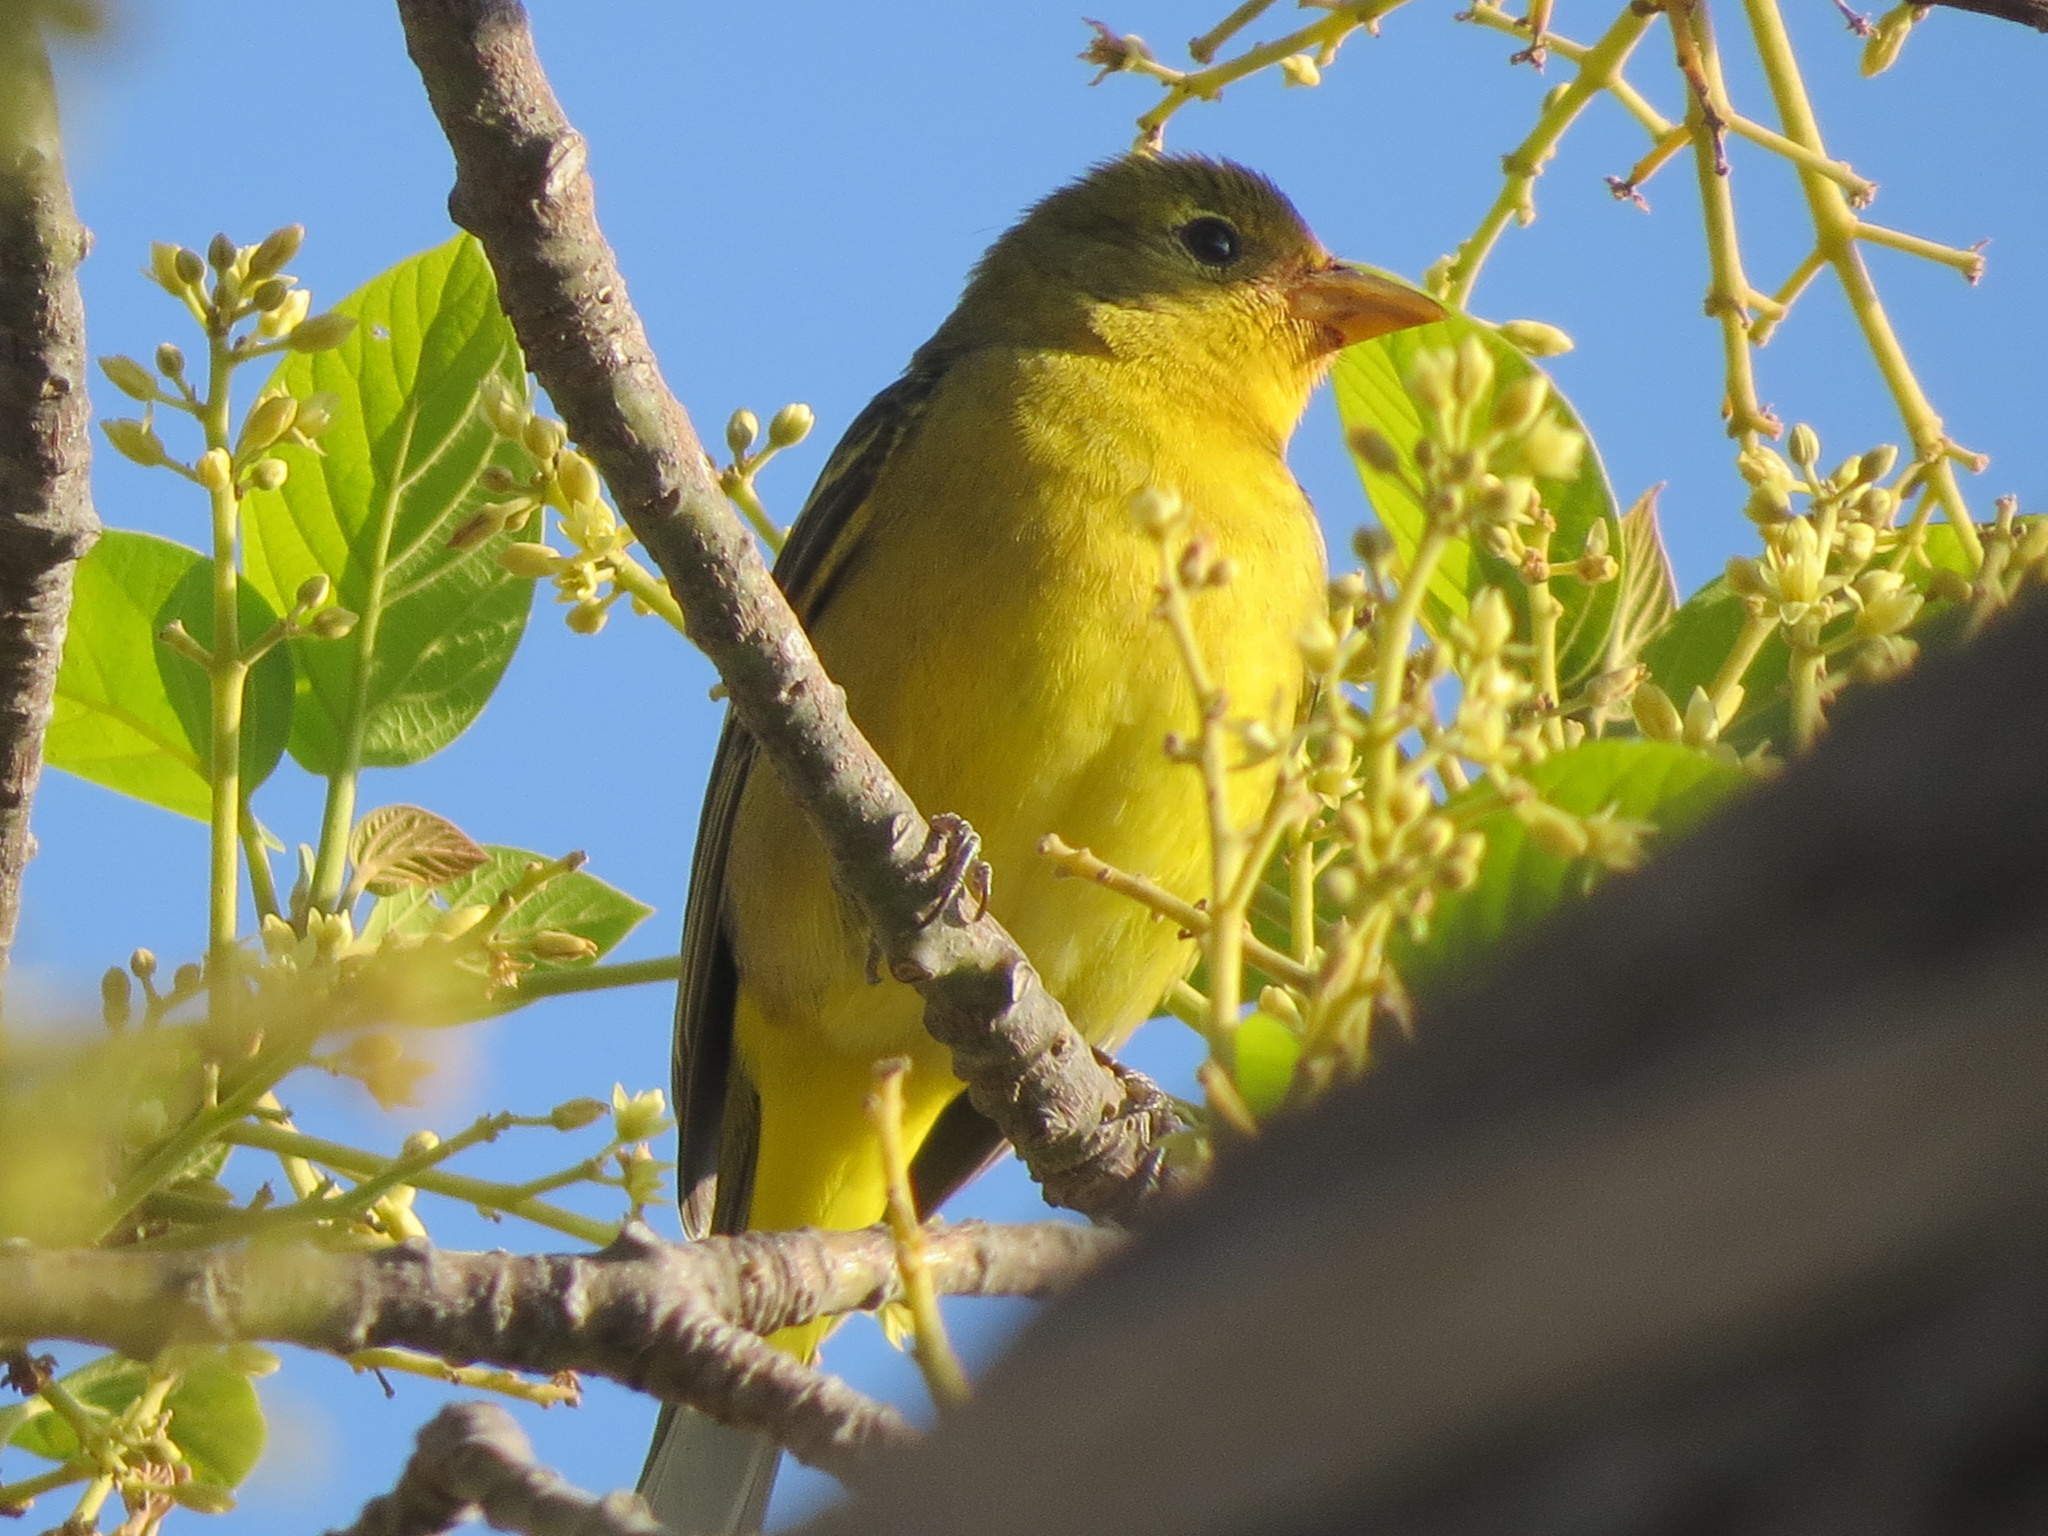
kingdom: Animalia
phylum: Chordata
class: Aves
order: Passeriformes
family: Cardinalidae
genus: Piranga
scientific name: Piranga ludoviciana
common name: Western tanager
